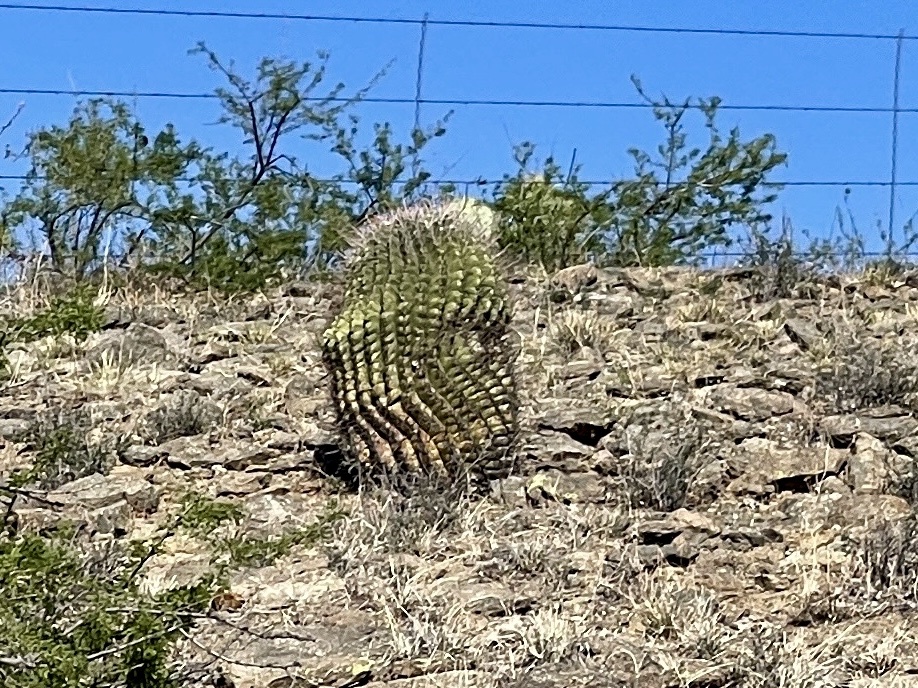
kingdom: Plantae
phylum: Tracheophyta
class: Magnoliopsida
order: Caryophyllales
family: Cactaceae
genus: Ferocactus
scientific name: Ferocactus wislizeni
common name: Candy barrel cactus
